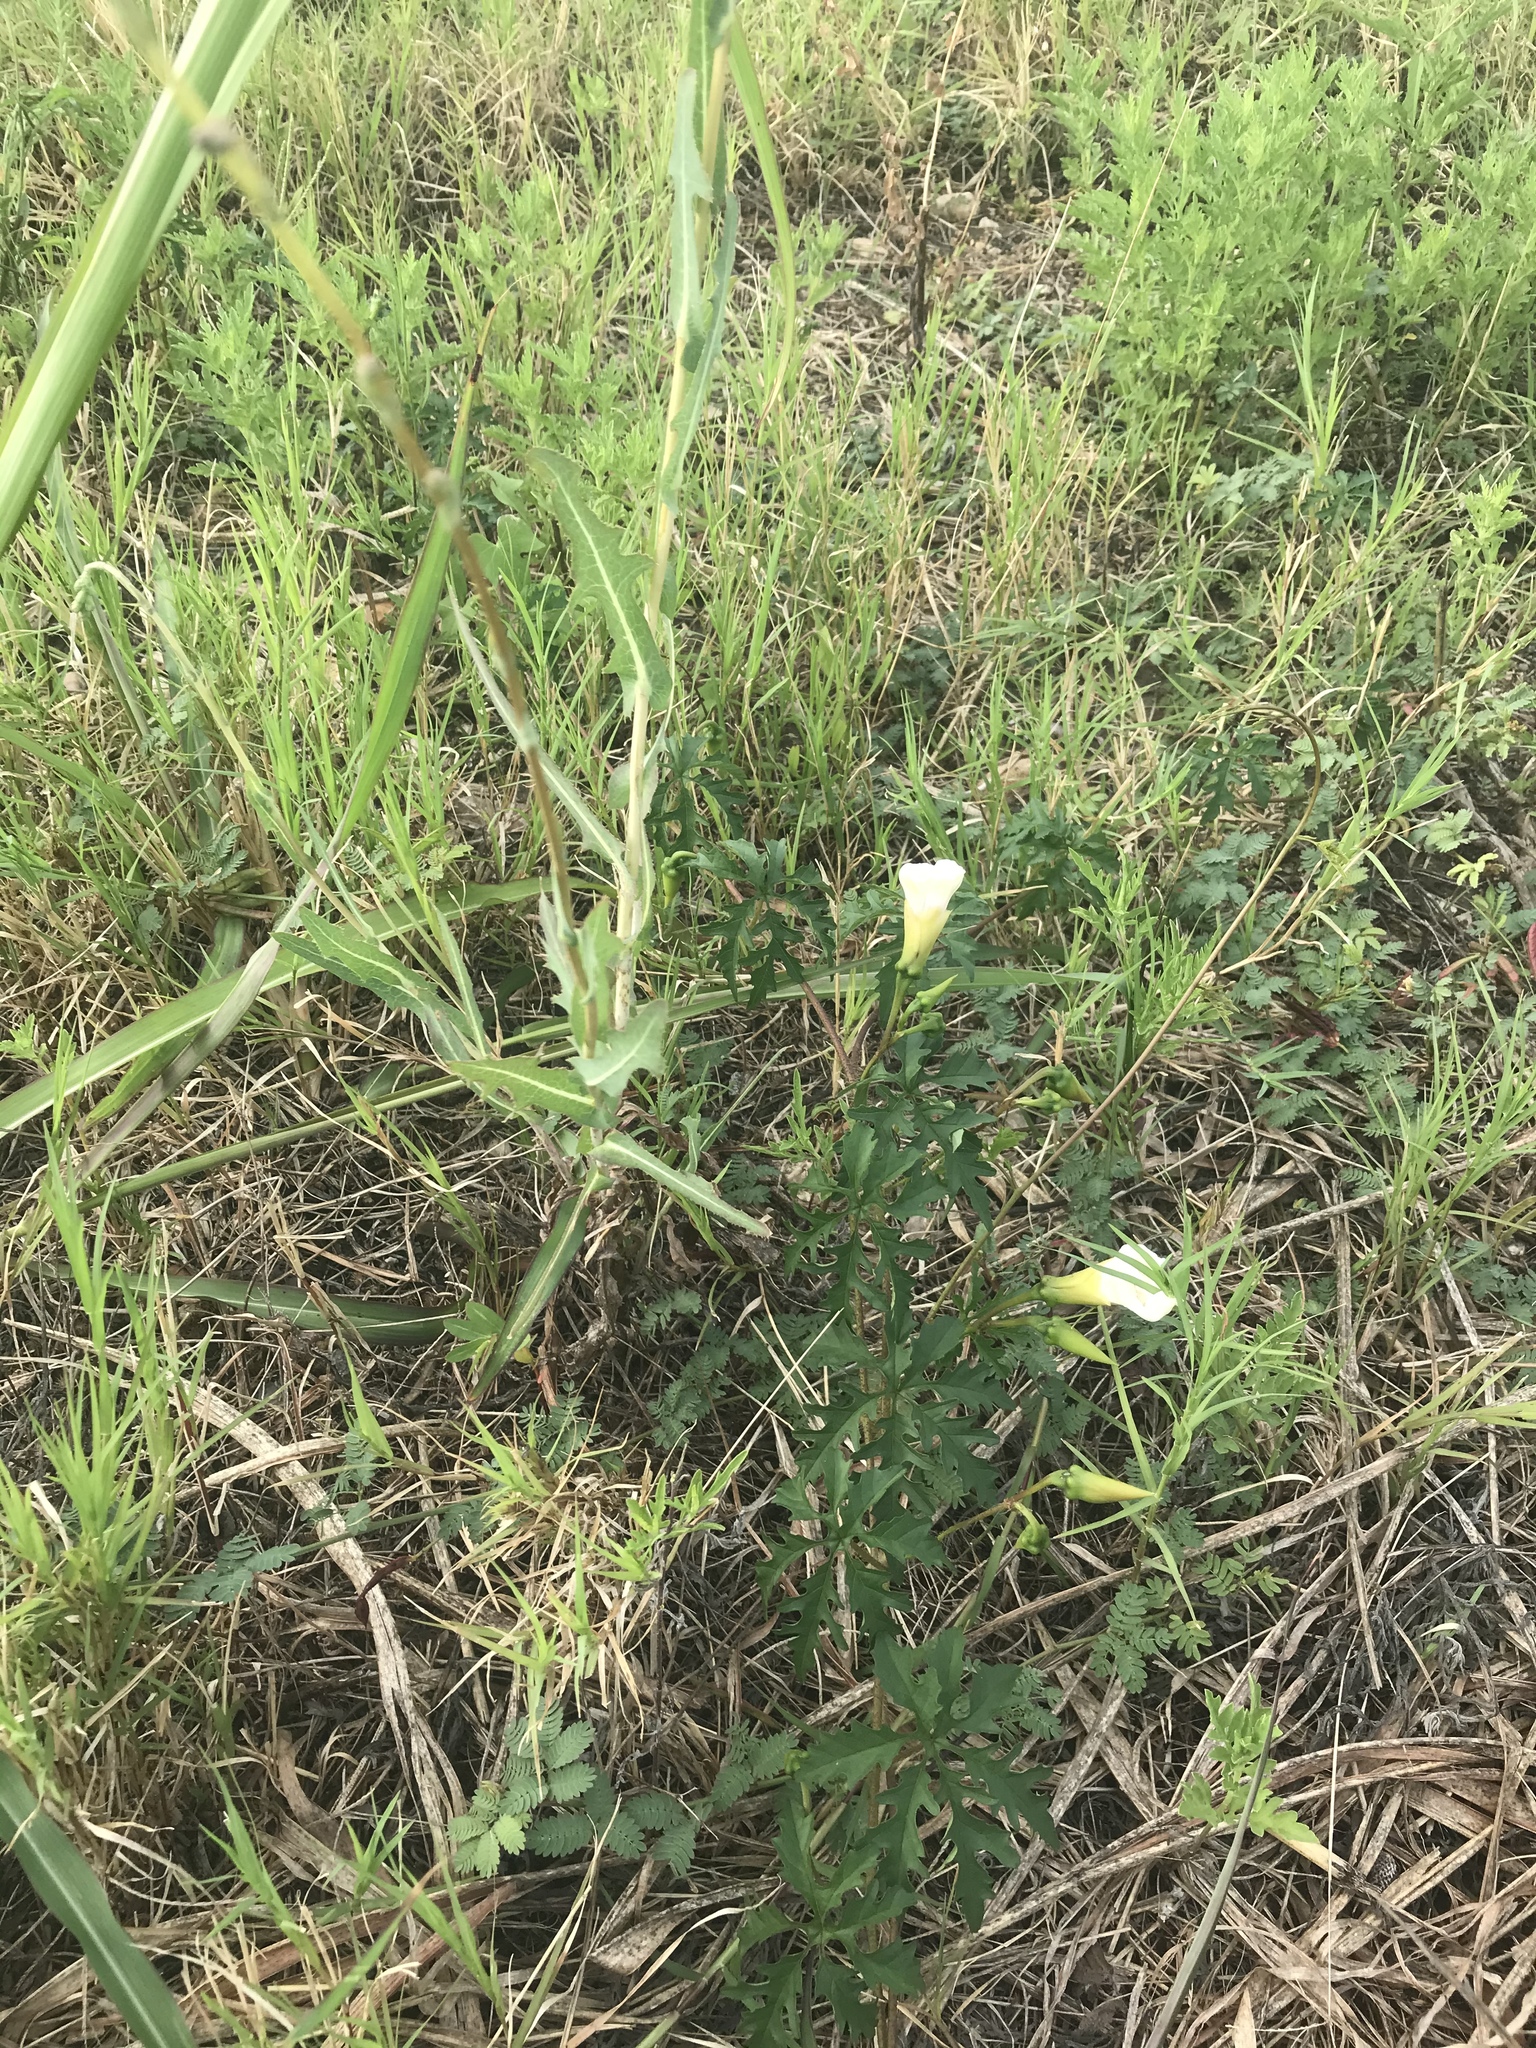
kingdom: Plantae
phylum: Tracheophyta
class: Magnoliopsida
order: Solanales
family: Convolvulaceae
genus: Distimake
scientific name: Distimake dissectus
